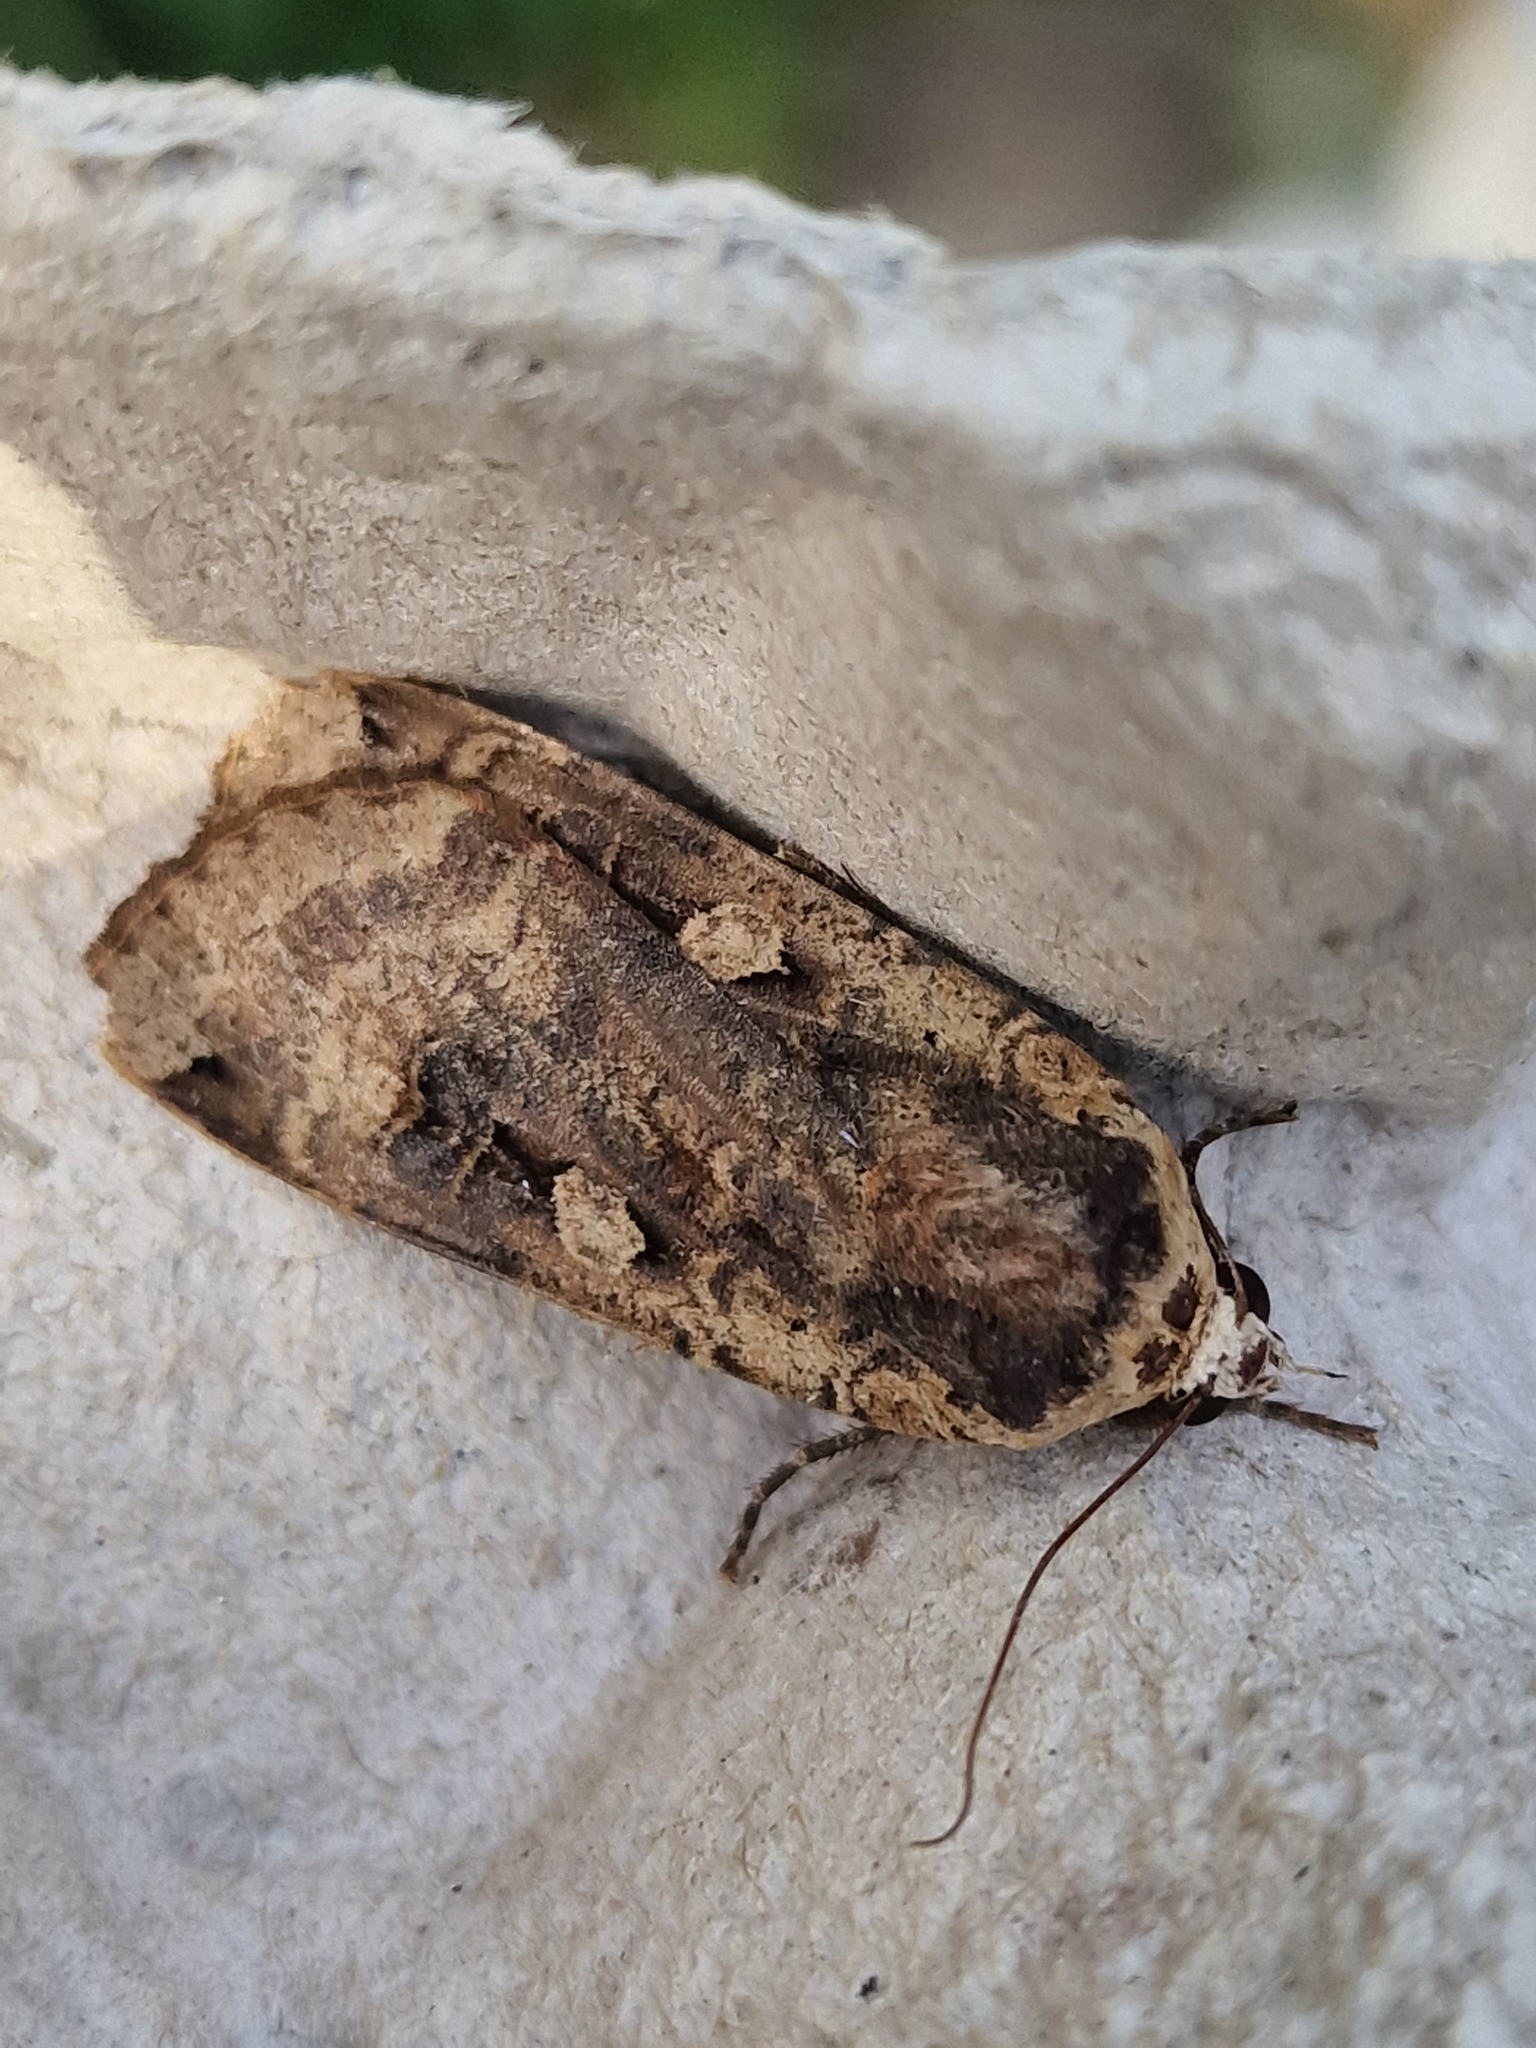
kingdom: Animalia
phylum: Arthropoda
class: Insecta
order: Lepidoptera
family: Noctuidae
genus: Noctua
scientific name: Noctua pronuba
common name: Large yellow underwing
